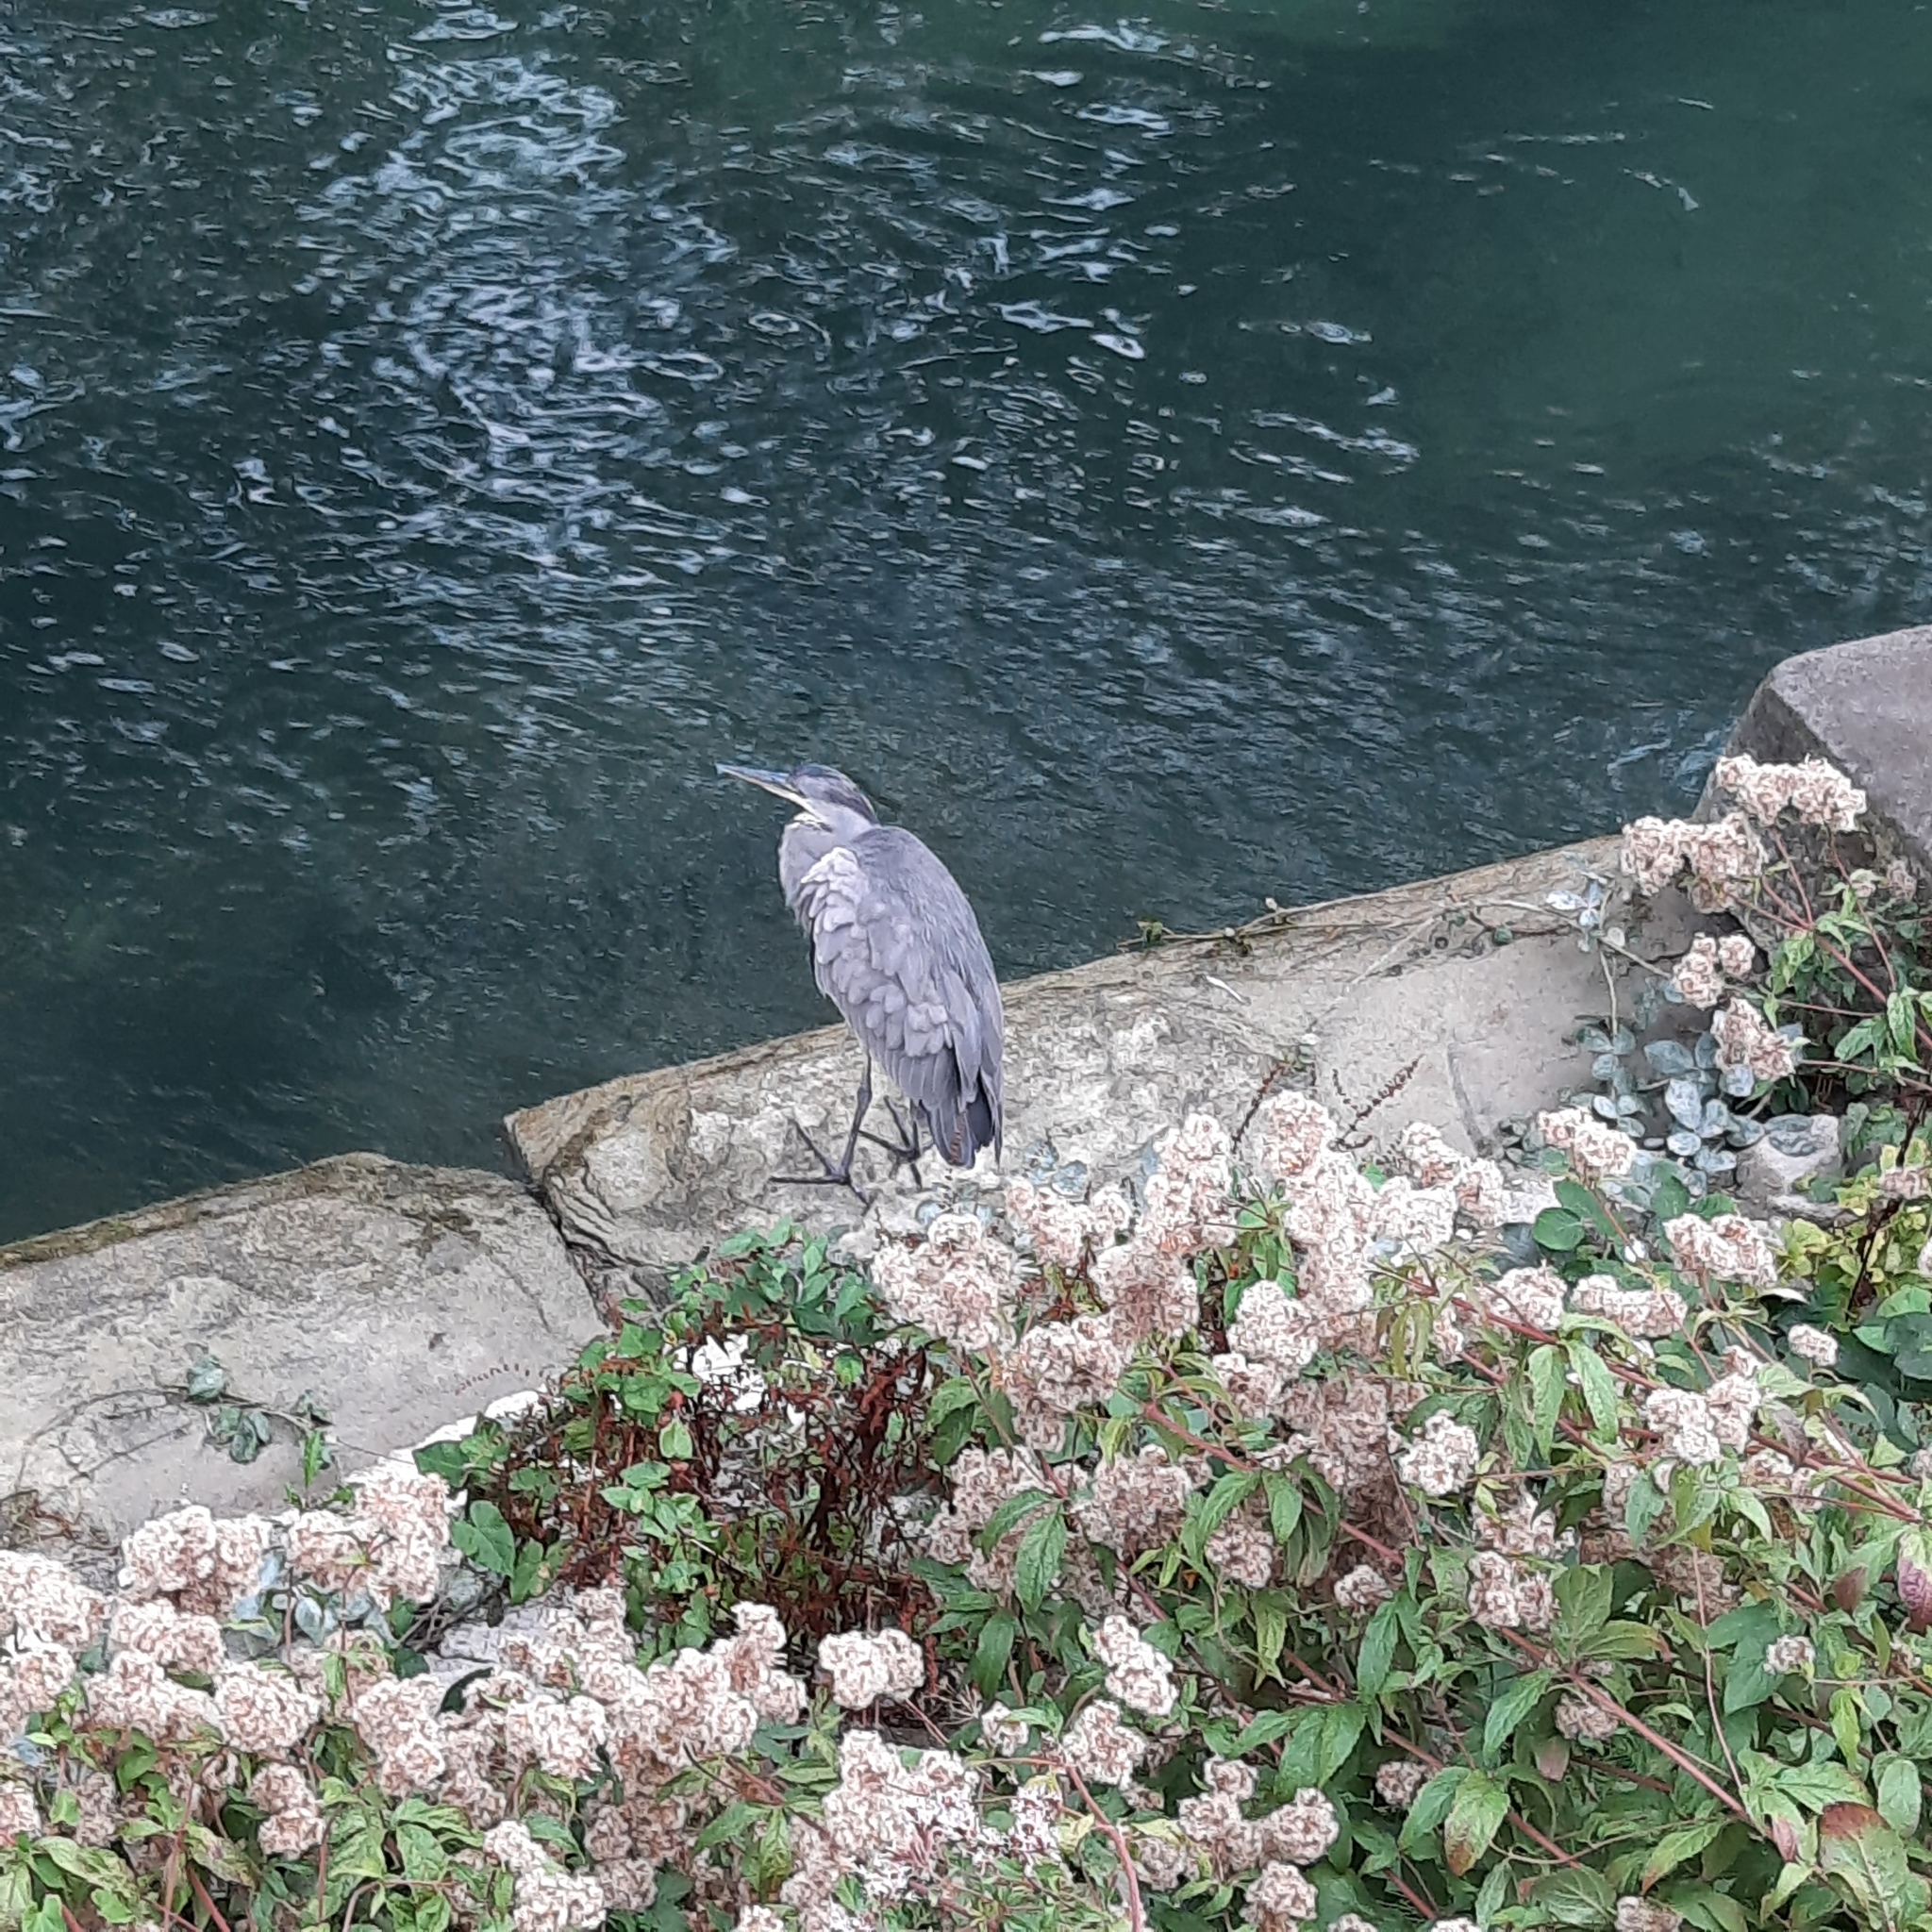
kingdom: Animalia
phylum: Chordata
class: Aves
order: Pelecaniformes
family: Ardeidae
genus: Ardea
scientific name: Ardea cinerea
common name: Grey heron
